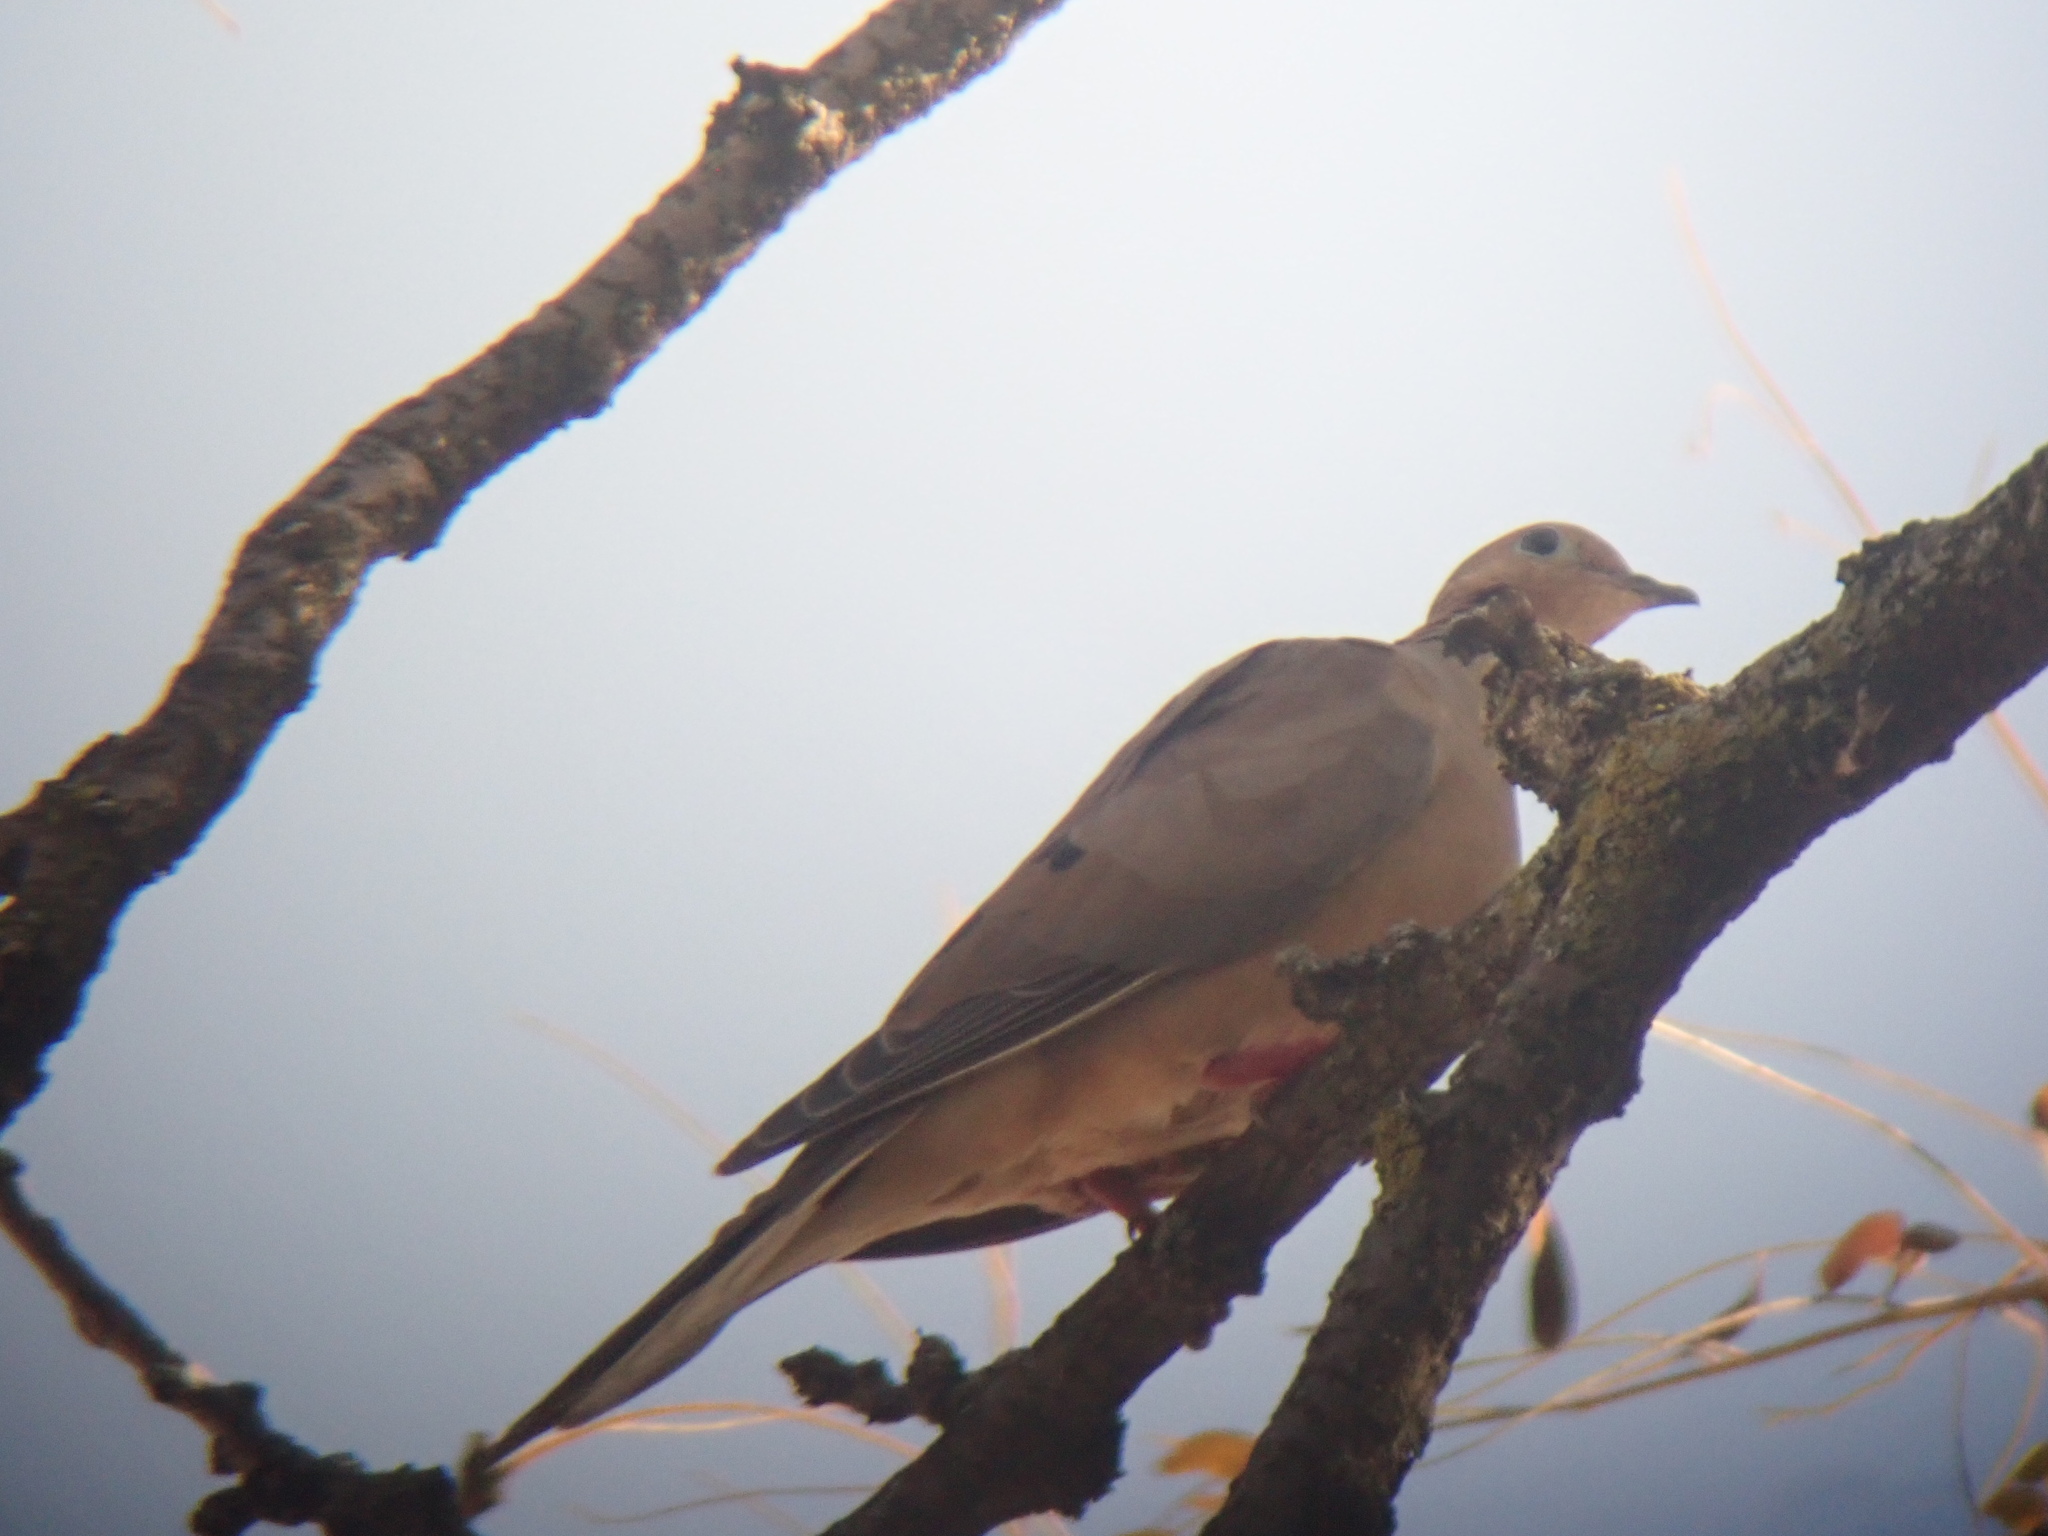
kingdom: Animalia
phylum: Chordata
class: Aves
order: Columbiformes
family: Columbidae
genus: Zenaida
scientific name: Zenaida macroura
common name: Mourning dove
